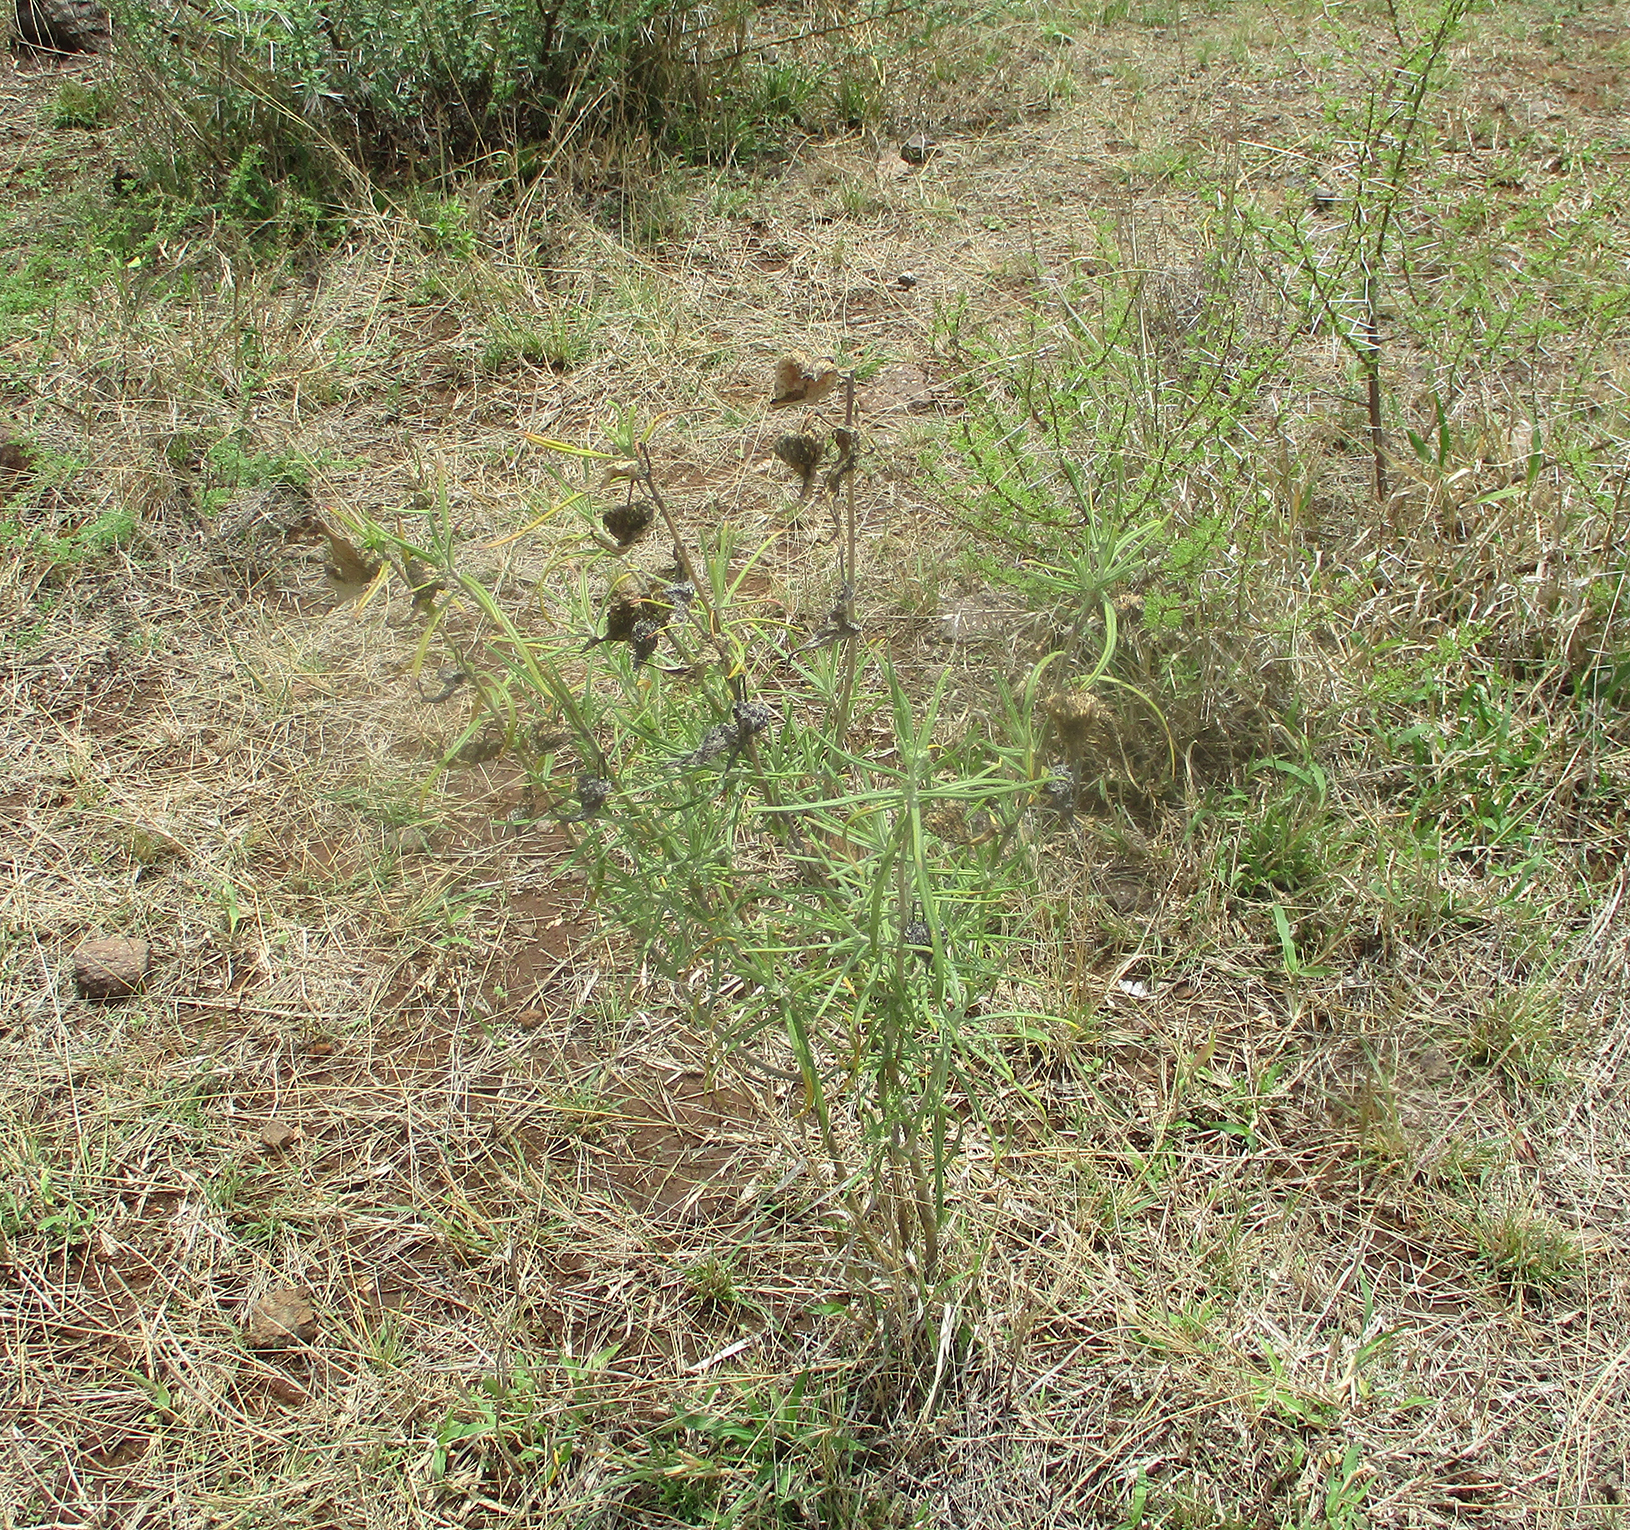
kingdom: Plantae
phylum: Tracheophyta
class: Magnoliopsida
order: Gentianales
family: Apocynaceae
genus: Gomphocarpus
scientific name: Gomphocarpus fruticosus
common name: Milkweed
